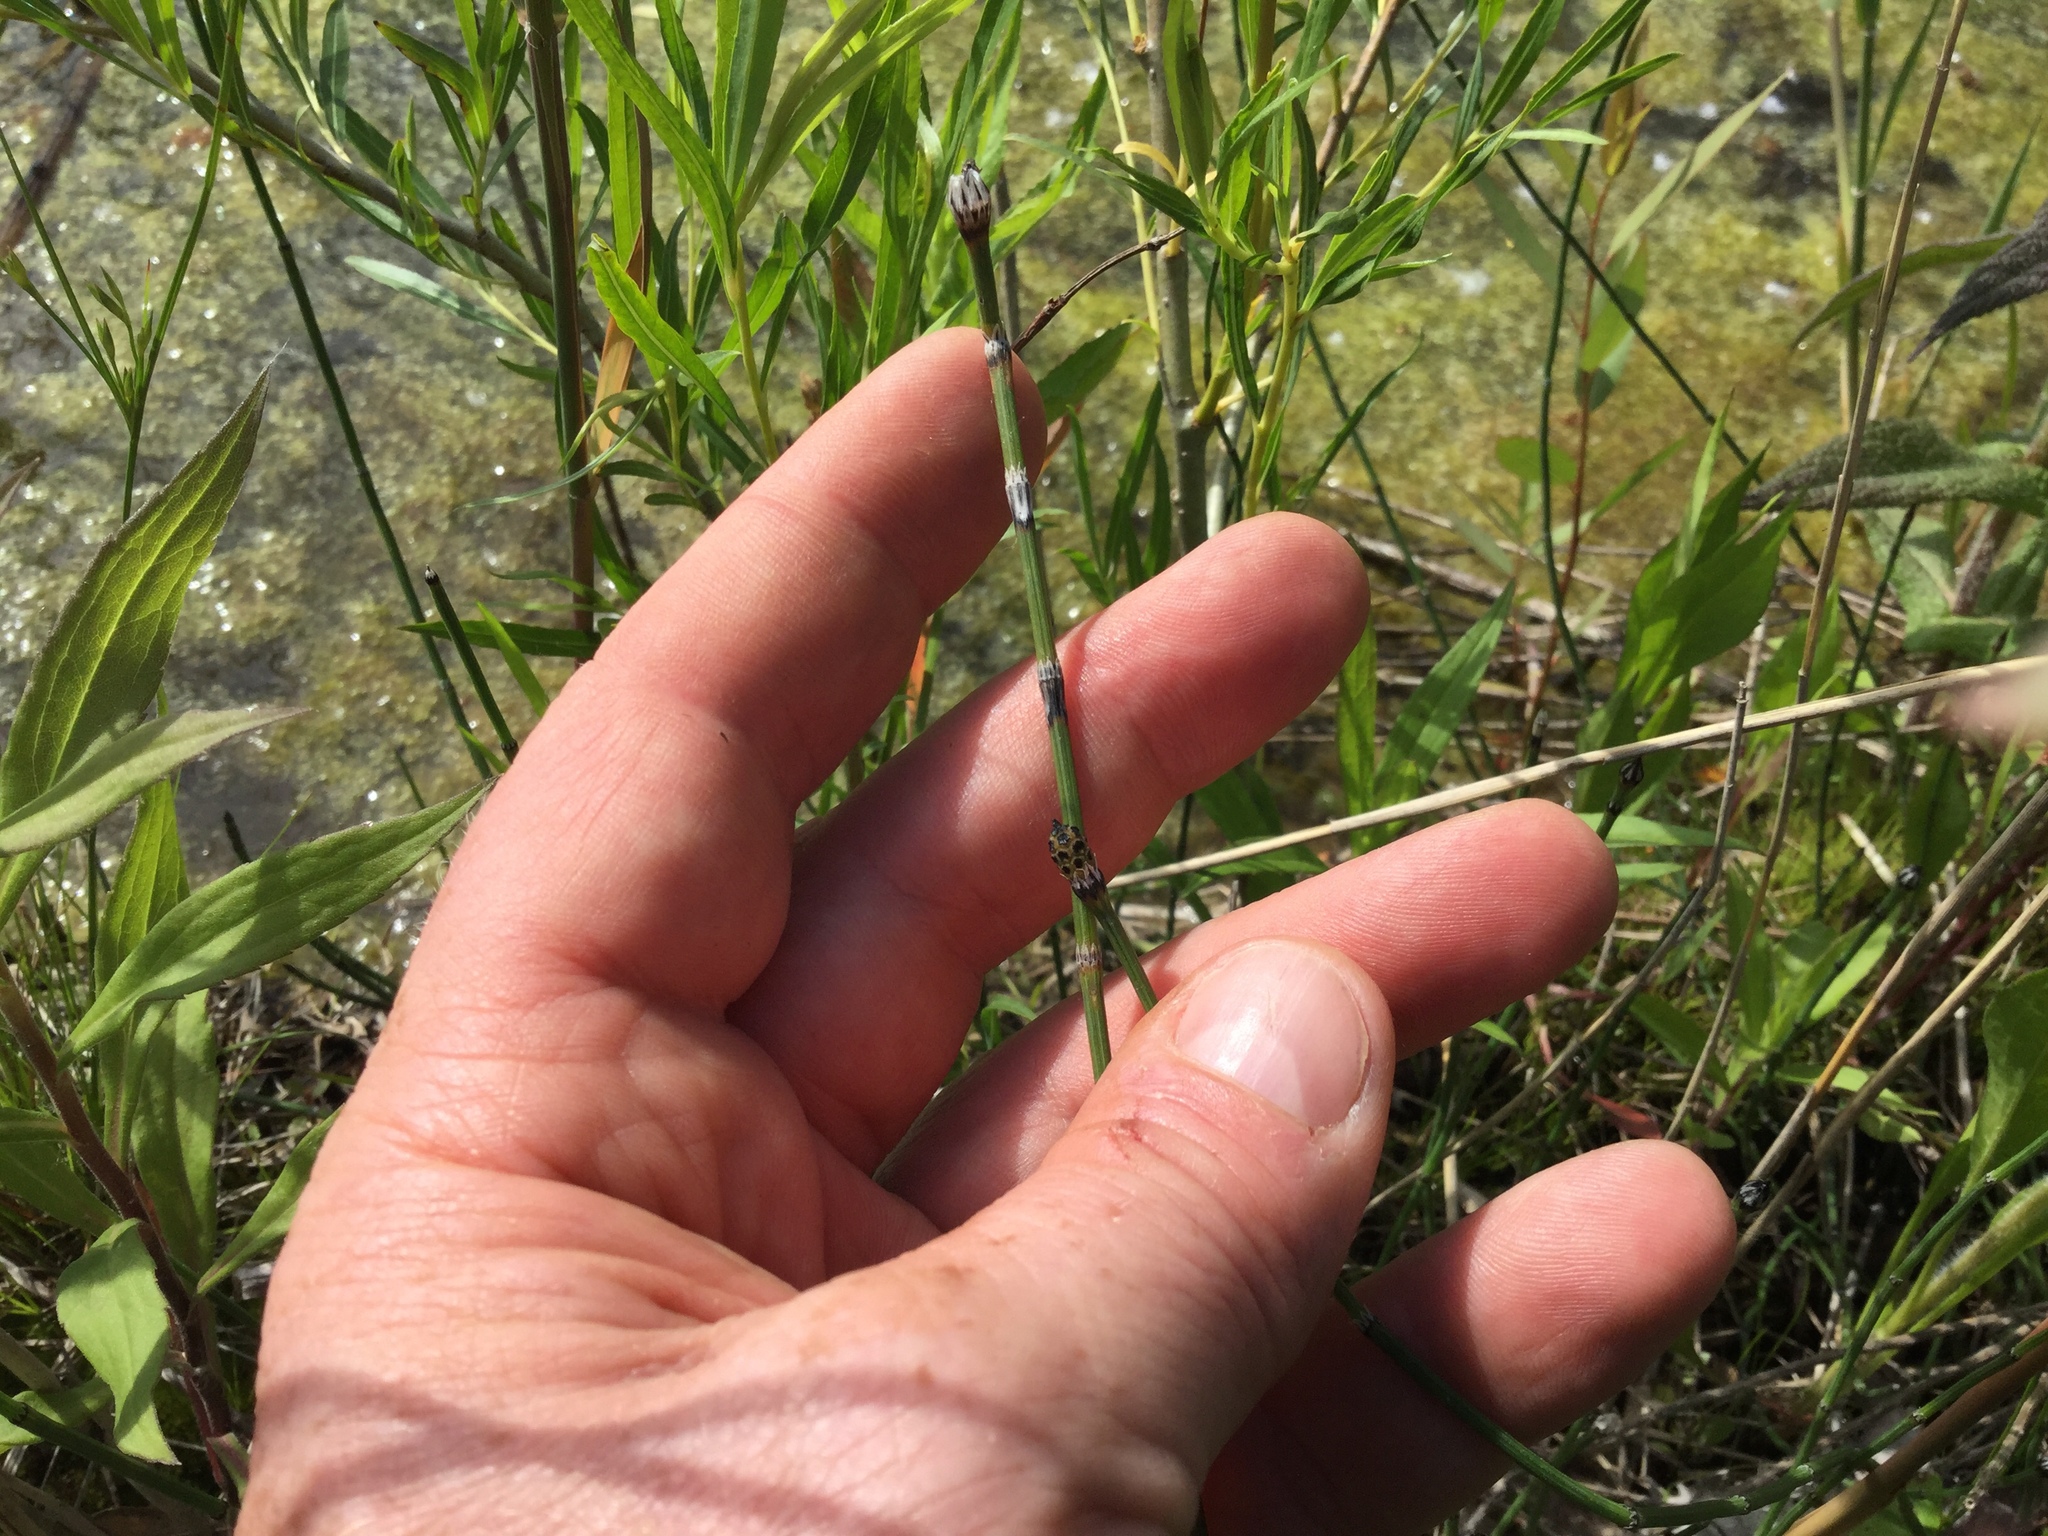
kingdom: Plantae
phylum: Tracheophyta
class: Polypodiopsida
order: Equisetales
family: Equisetaceae
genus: Equisetum
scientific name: Equisetum variegatum
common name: Variegated horsetail
